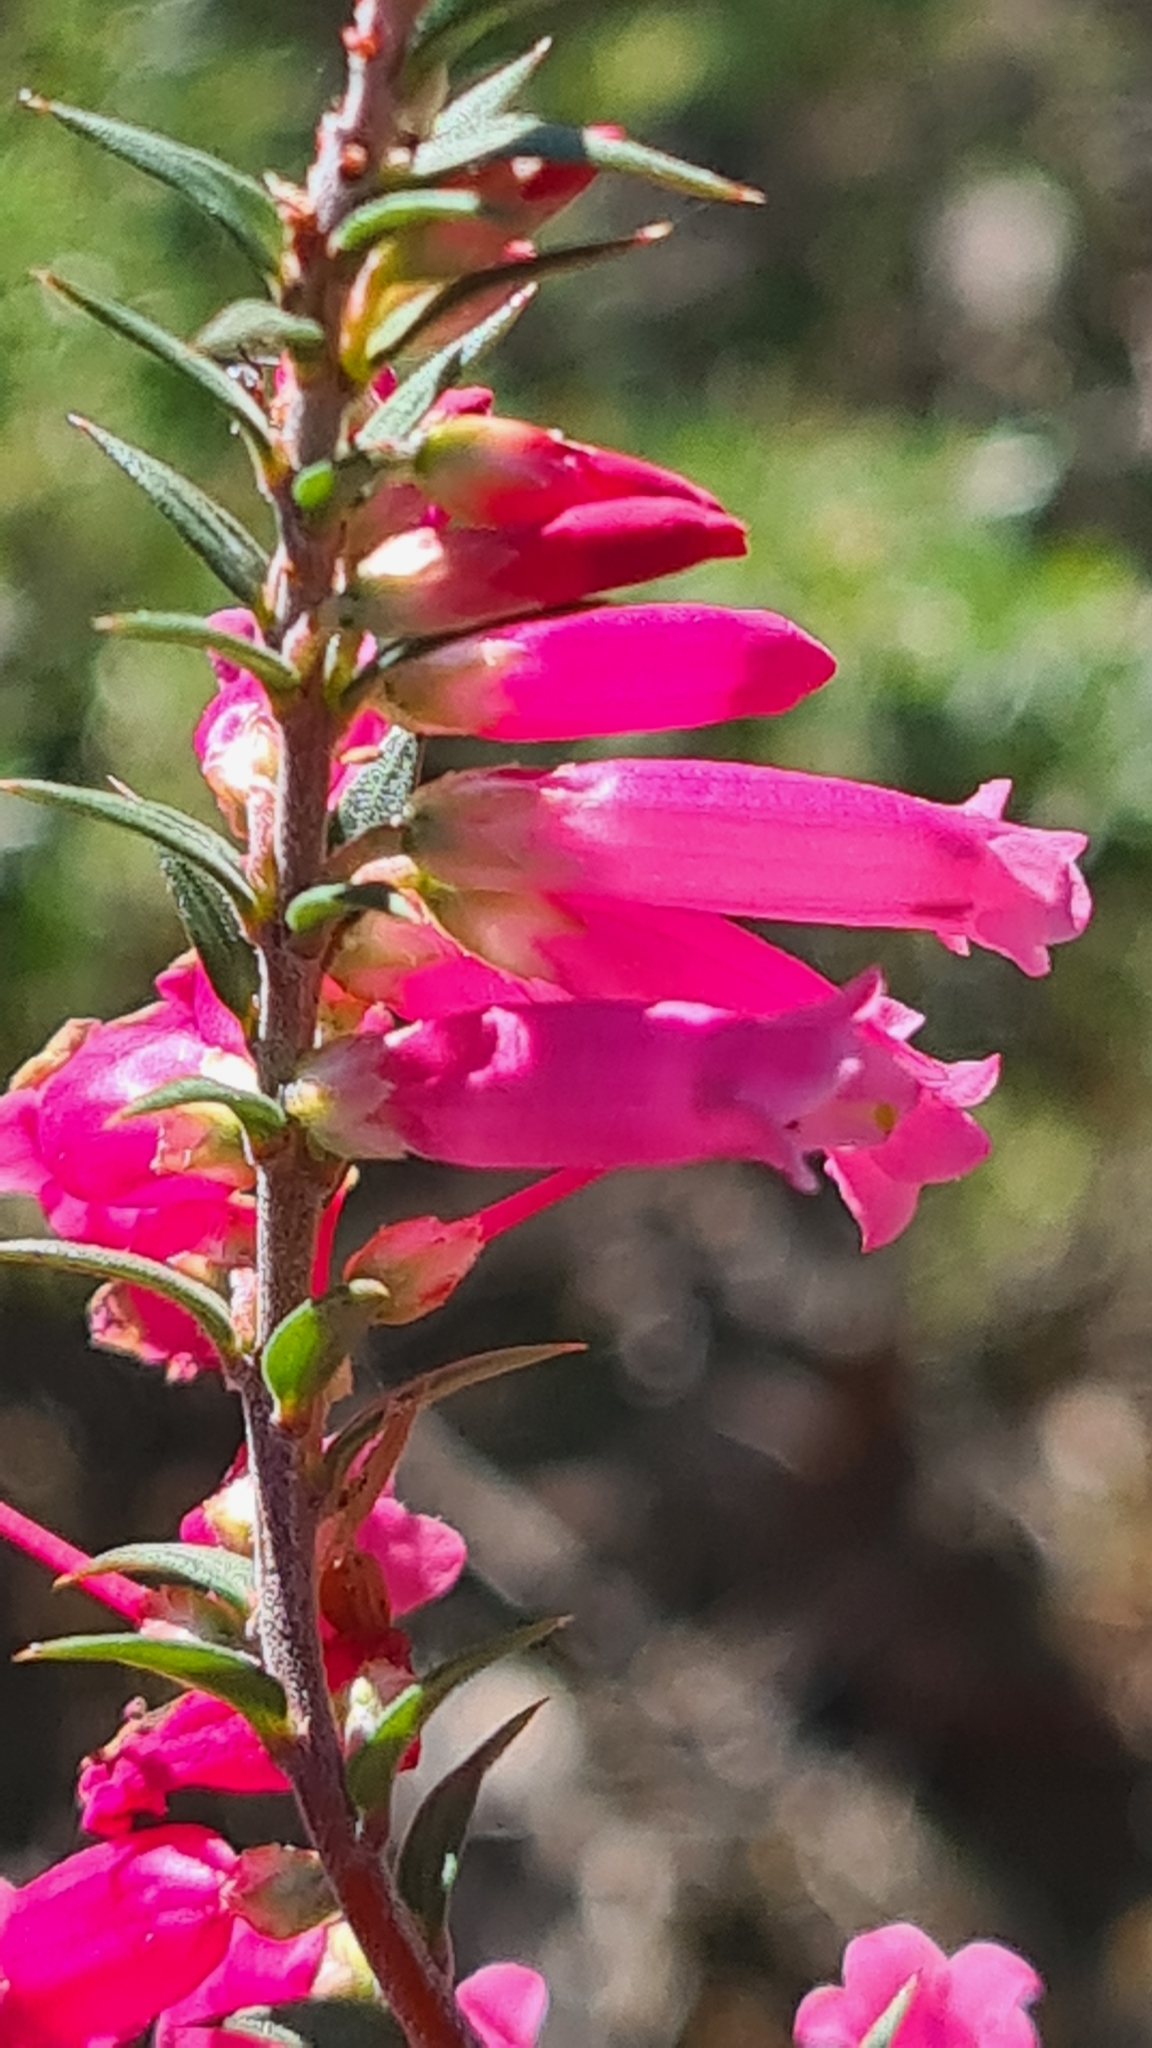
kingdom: Plantae
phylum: Tracheophyta
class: Magnoliopsida
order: Ericales
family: Ericaceae
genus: Epacris
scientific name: Epacris impressa
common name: Common-heath
